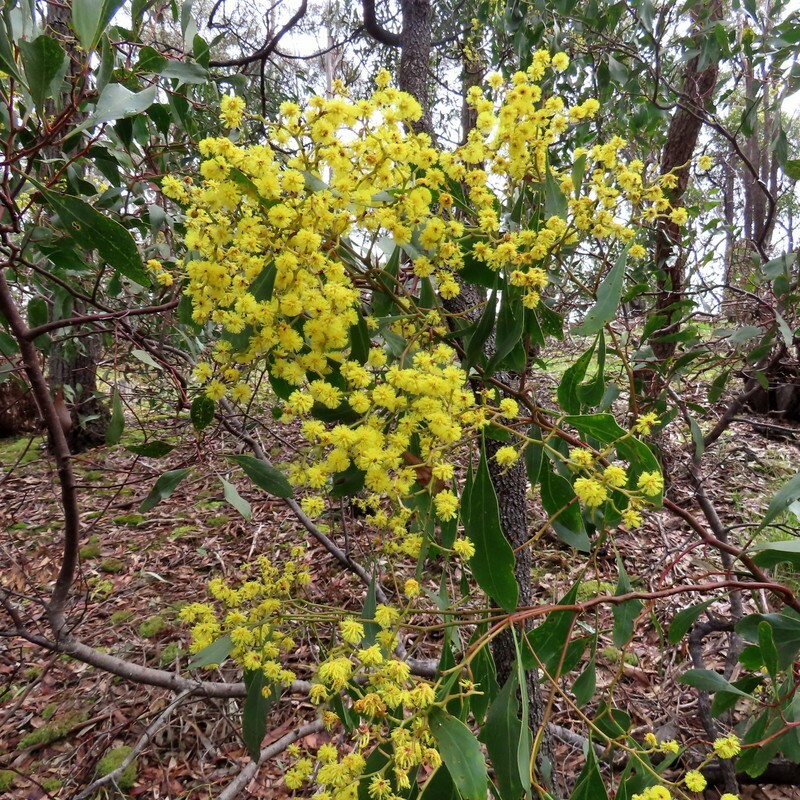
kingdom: Plantae
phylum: Tracheophyta
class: Magnoliopsida
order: Fabales
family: Fabaceae
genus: Acacia
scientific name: Acacia pycnantha
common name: Golden wattle
